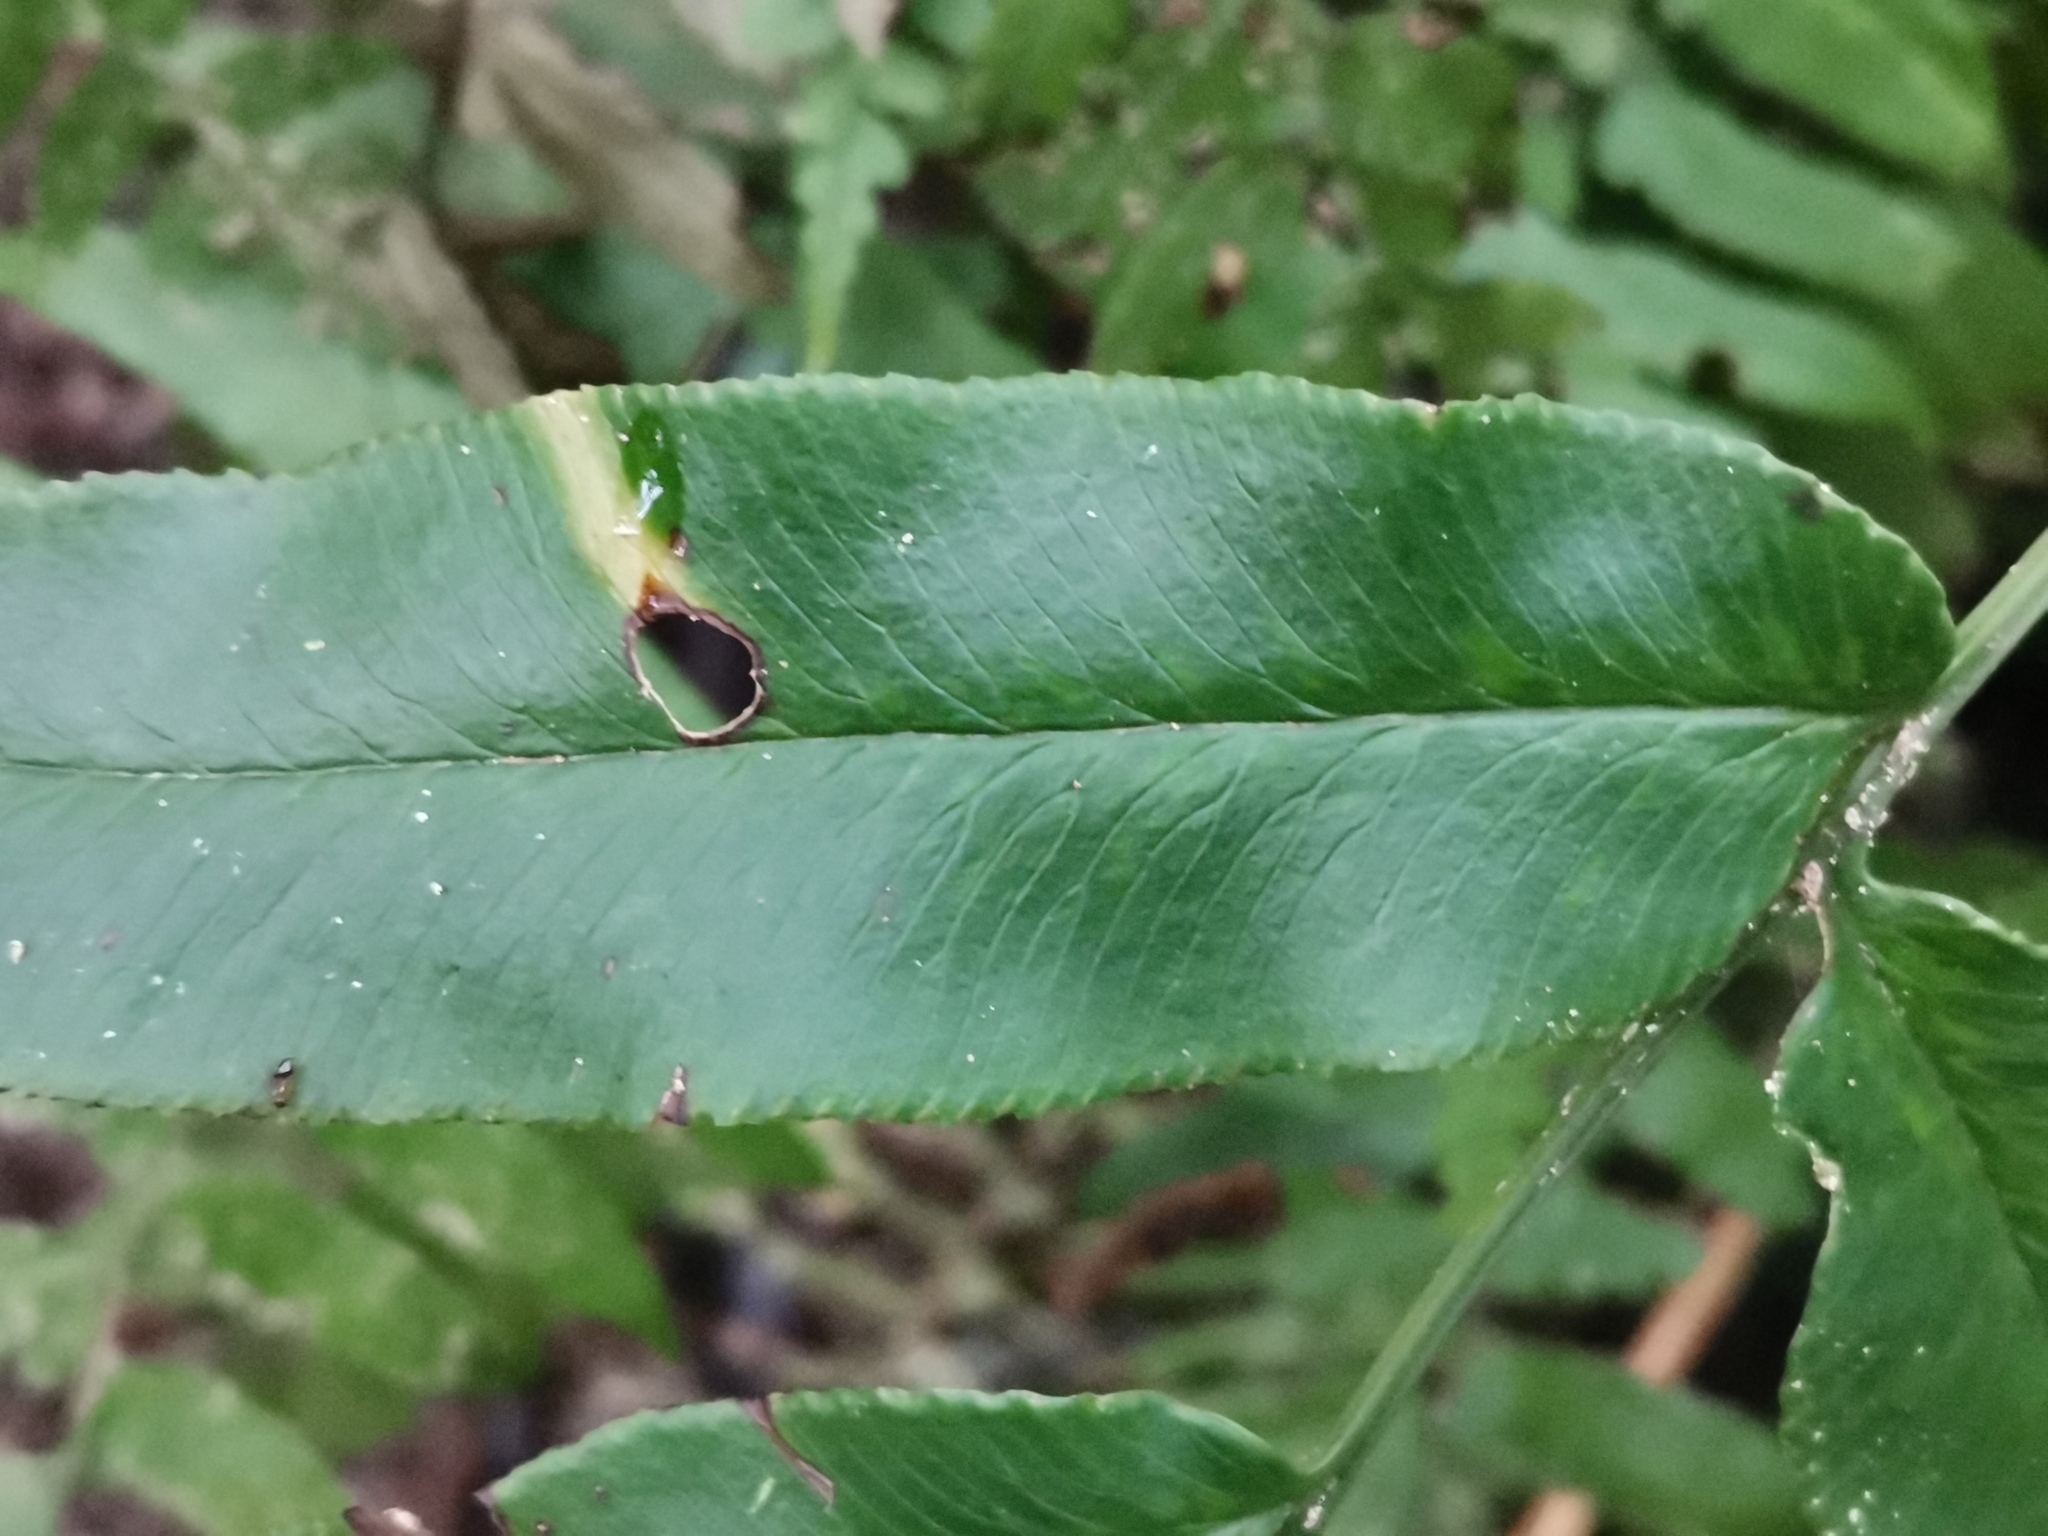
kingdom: Plantae
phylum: Tracheophyta
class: Polypodiopsida
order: Polypodiales
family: Pteridaceae
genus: Coniogramme
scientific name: Coniogramme intermedia
